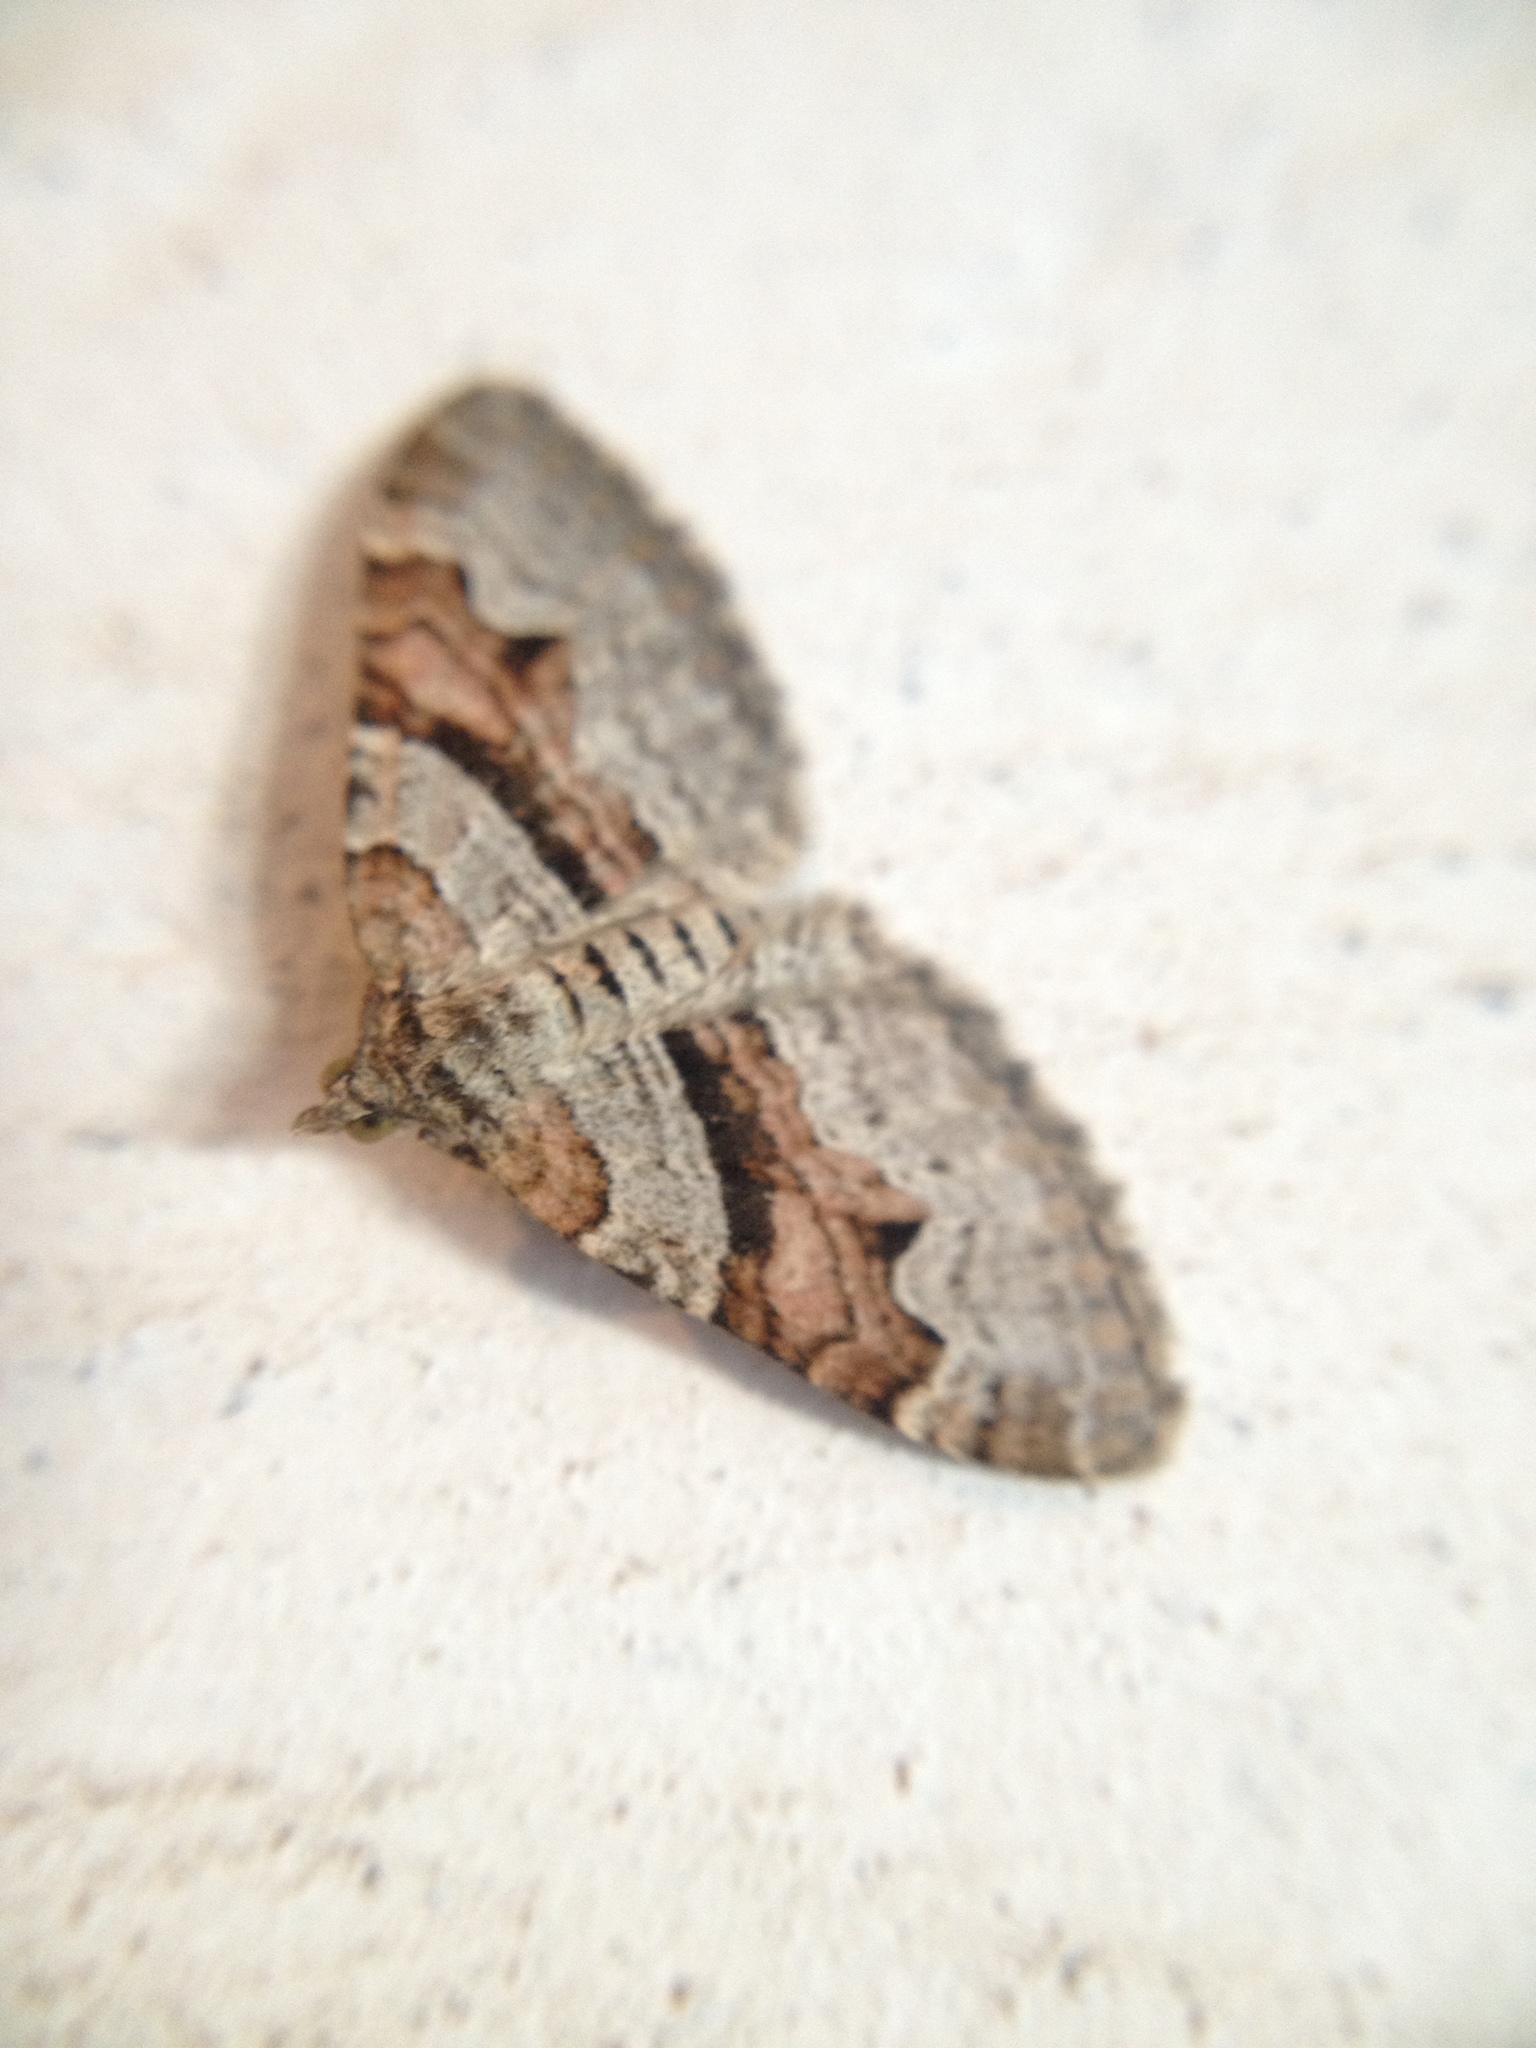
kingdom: Animalia
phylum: Arthropoda
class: Insecta
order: Lepidoptera
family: Geometridae
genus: Xanthorhoe
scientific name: Xanthorhoe designata
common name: Flame carpet
